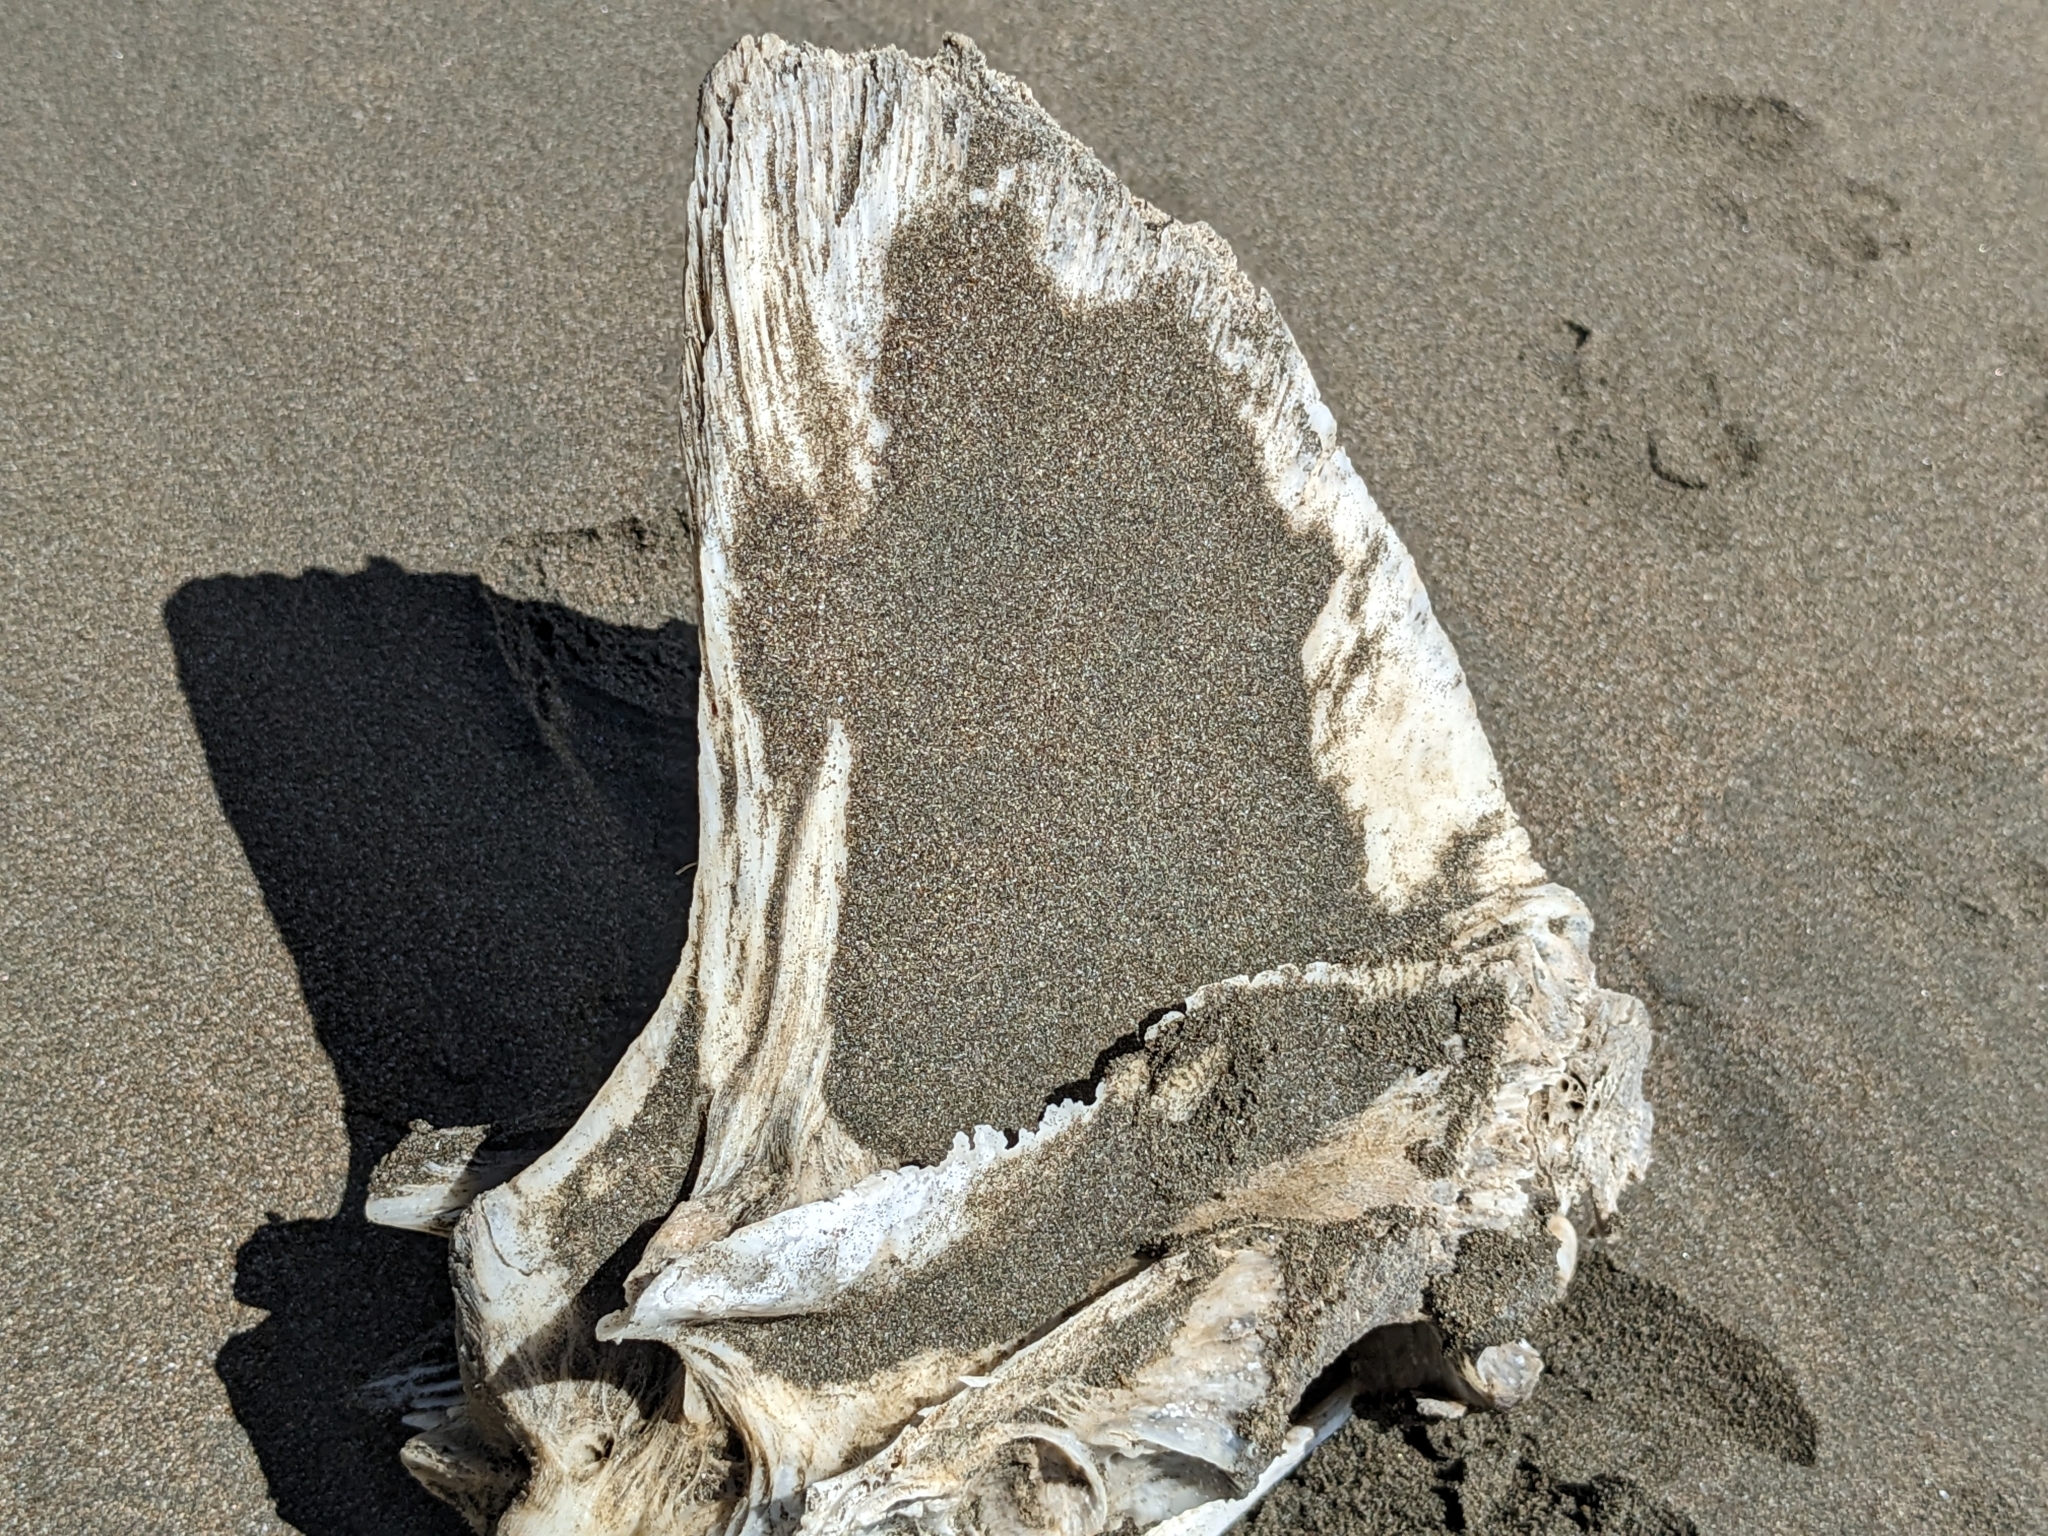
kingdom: Animalia
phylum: Chordata
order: Perciformes
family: Coryphaenidae
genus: Coryphaena
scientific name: Coryphaena hippurus
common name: Dolphin
